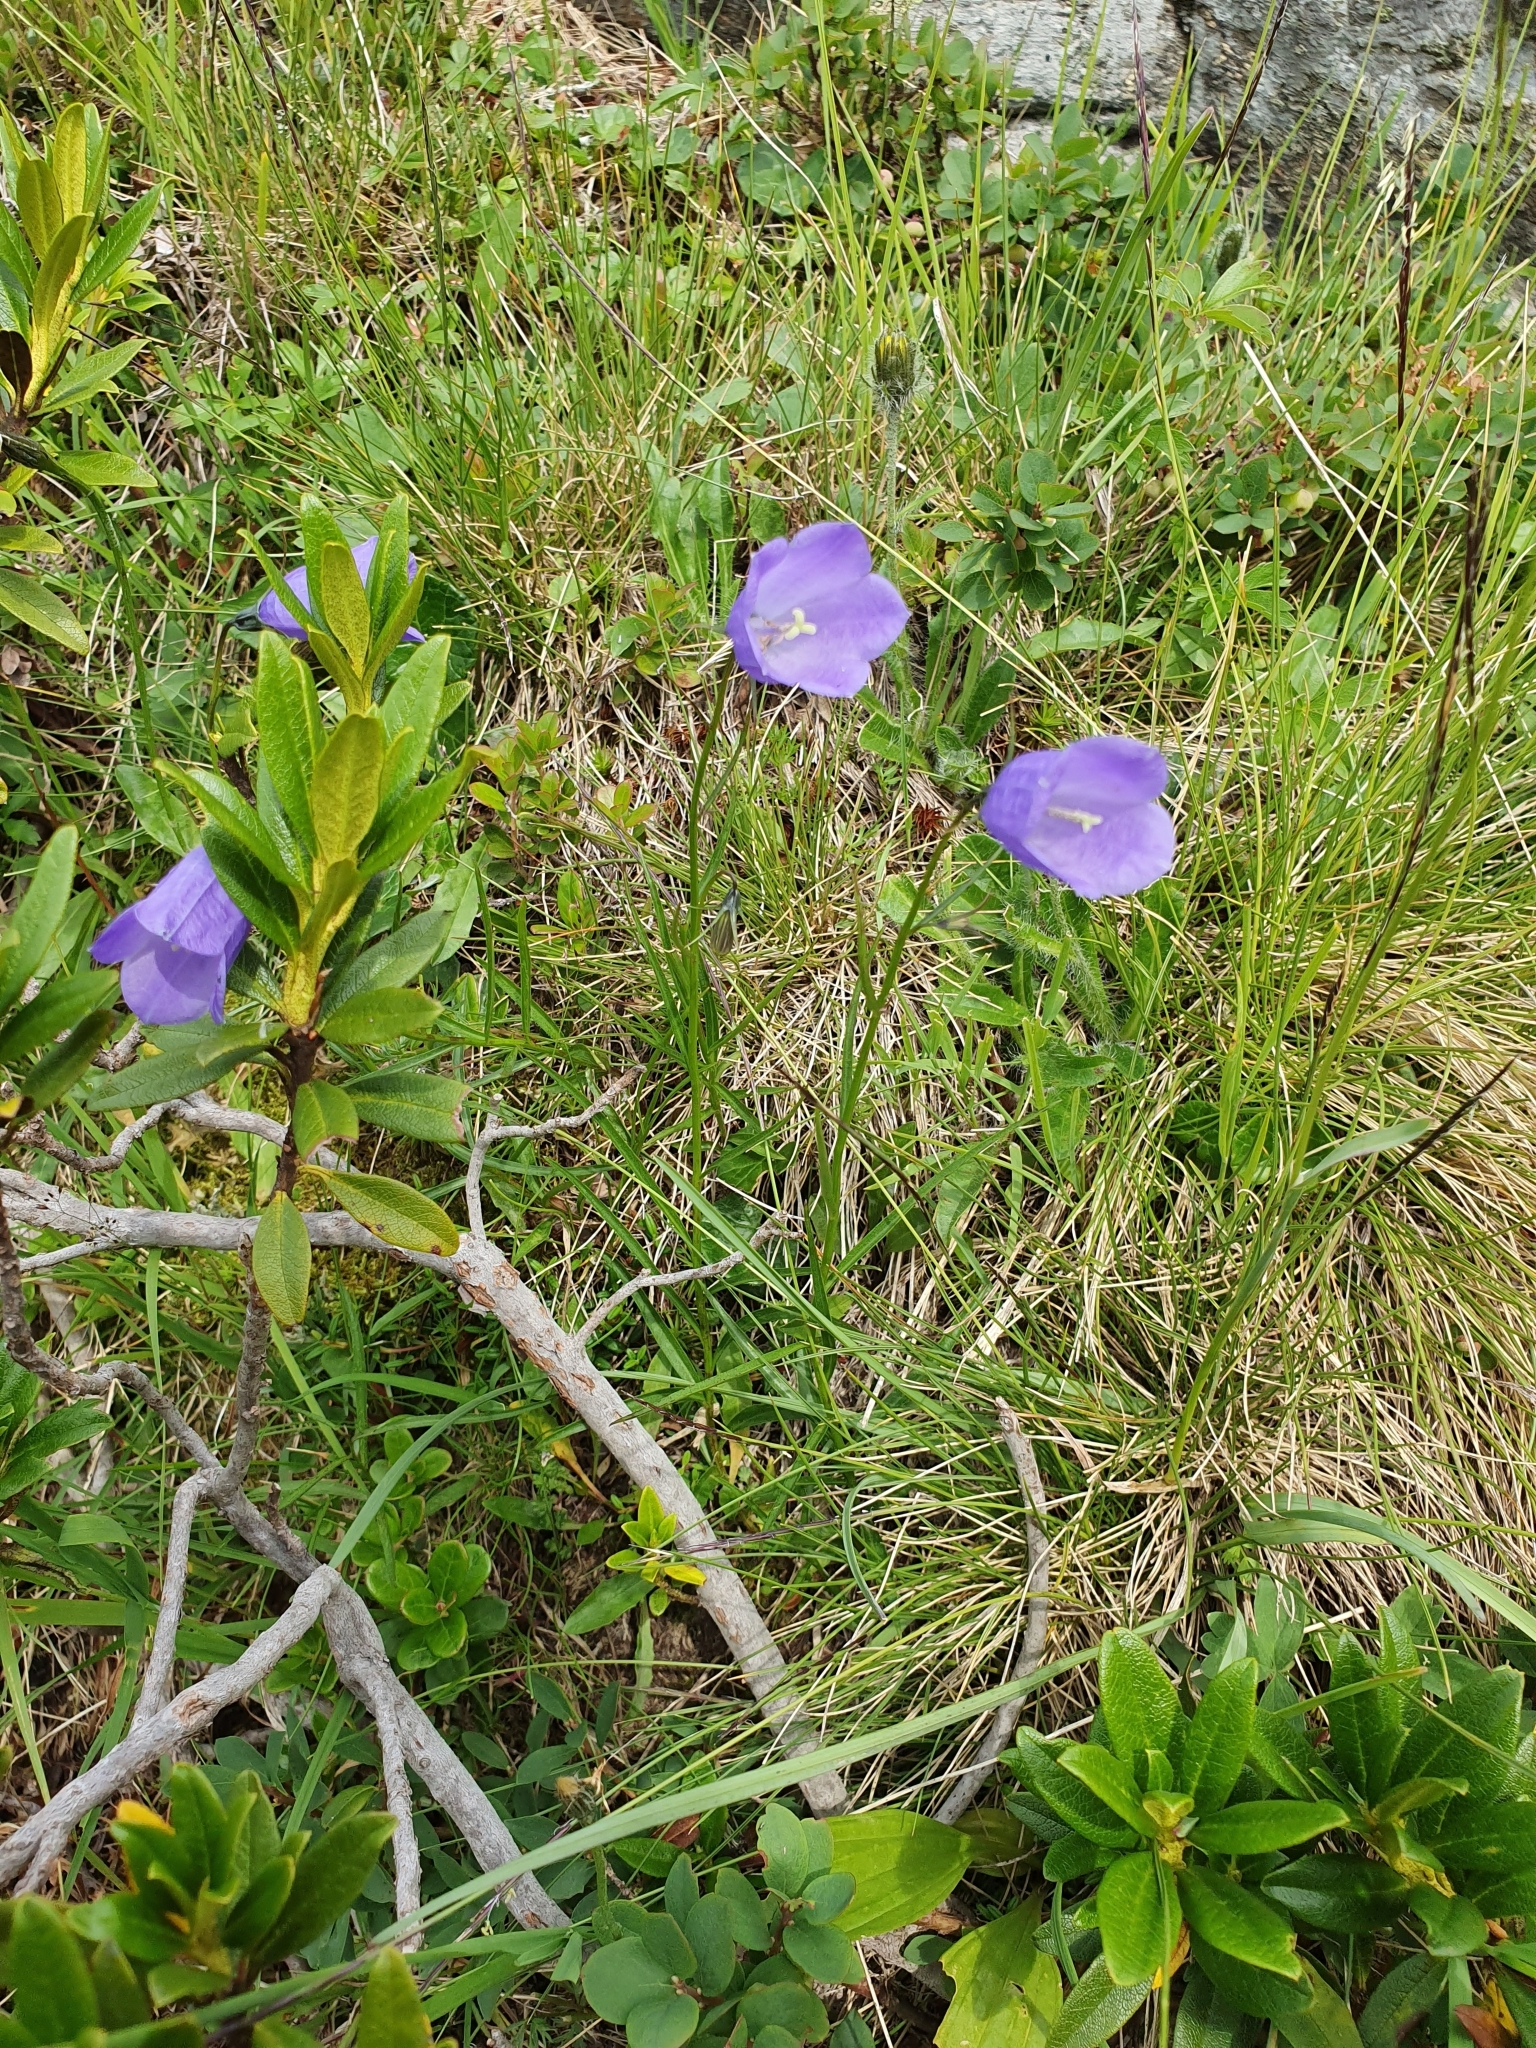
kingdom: Plantae
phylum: Tracheophyta
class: Magnoliopsida
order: Asterales
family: Campanulaceae
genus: Campanula
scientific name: Campanula scheuchzeri
